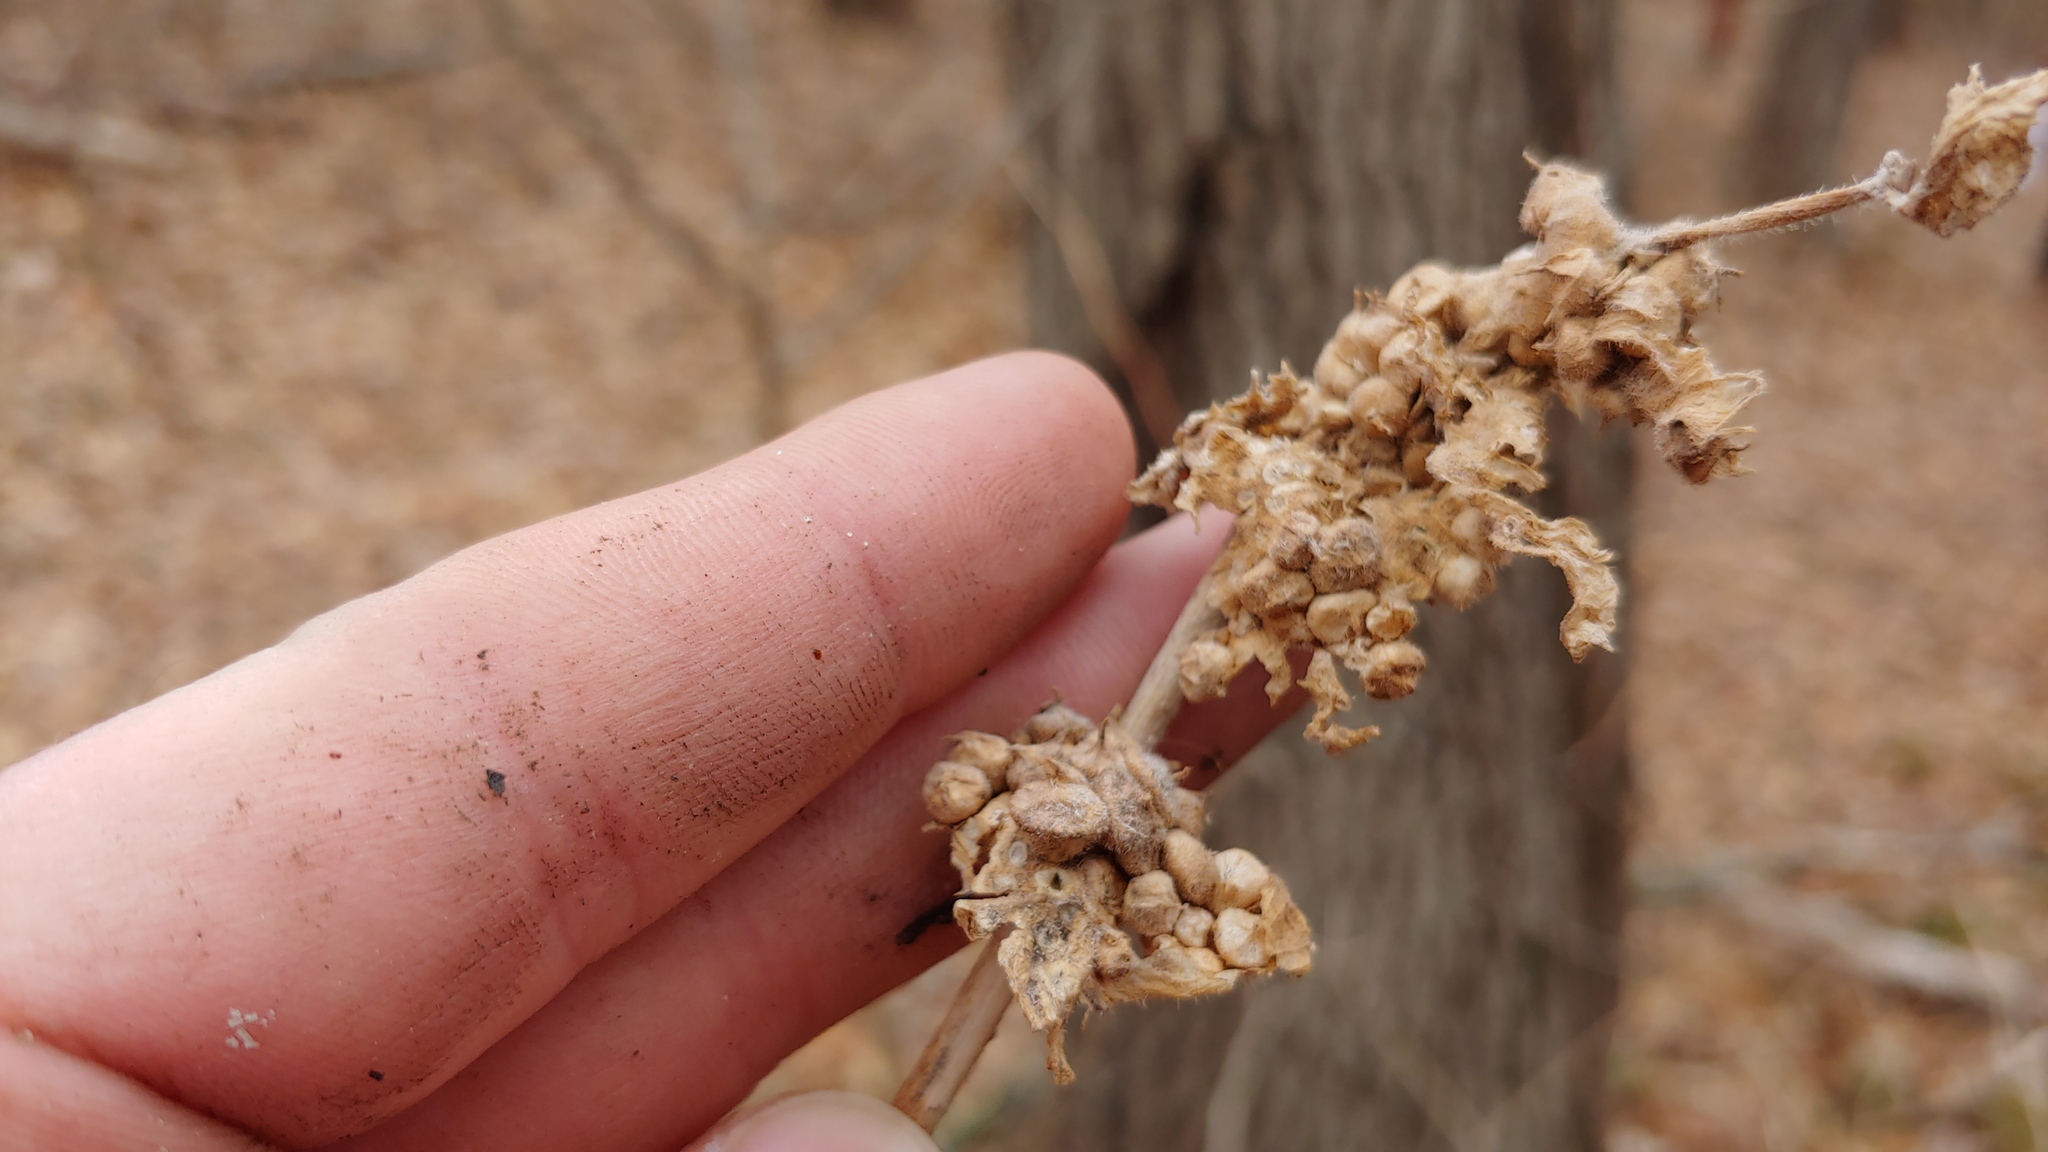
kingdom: Animalia
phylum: Arthropoda
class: Insecta
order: Diptera
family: Cecidomyiidae
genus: Celticecis
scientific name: Celticecis celtiphyllia
